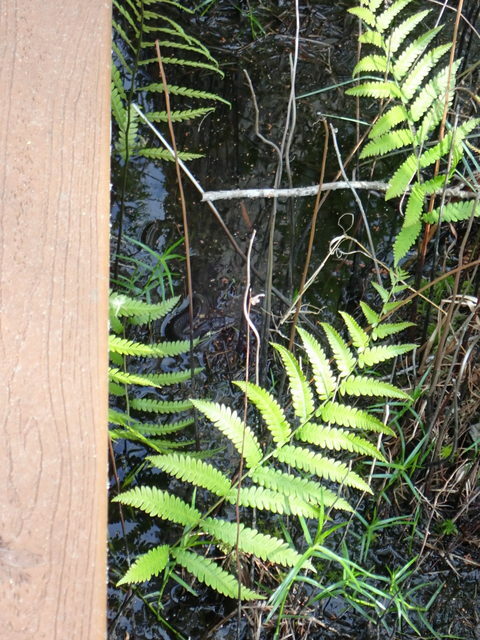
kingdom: Plantae
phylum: Tracheophyta
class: Polypodiopsida
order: Polypodiales
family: Blechnaceae
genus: Anchistea
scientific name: Anchistea virginica
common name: Virginia chain fern
